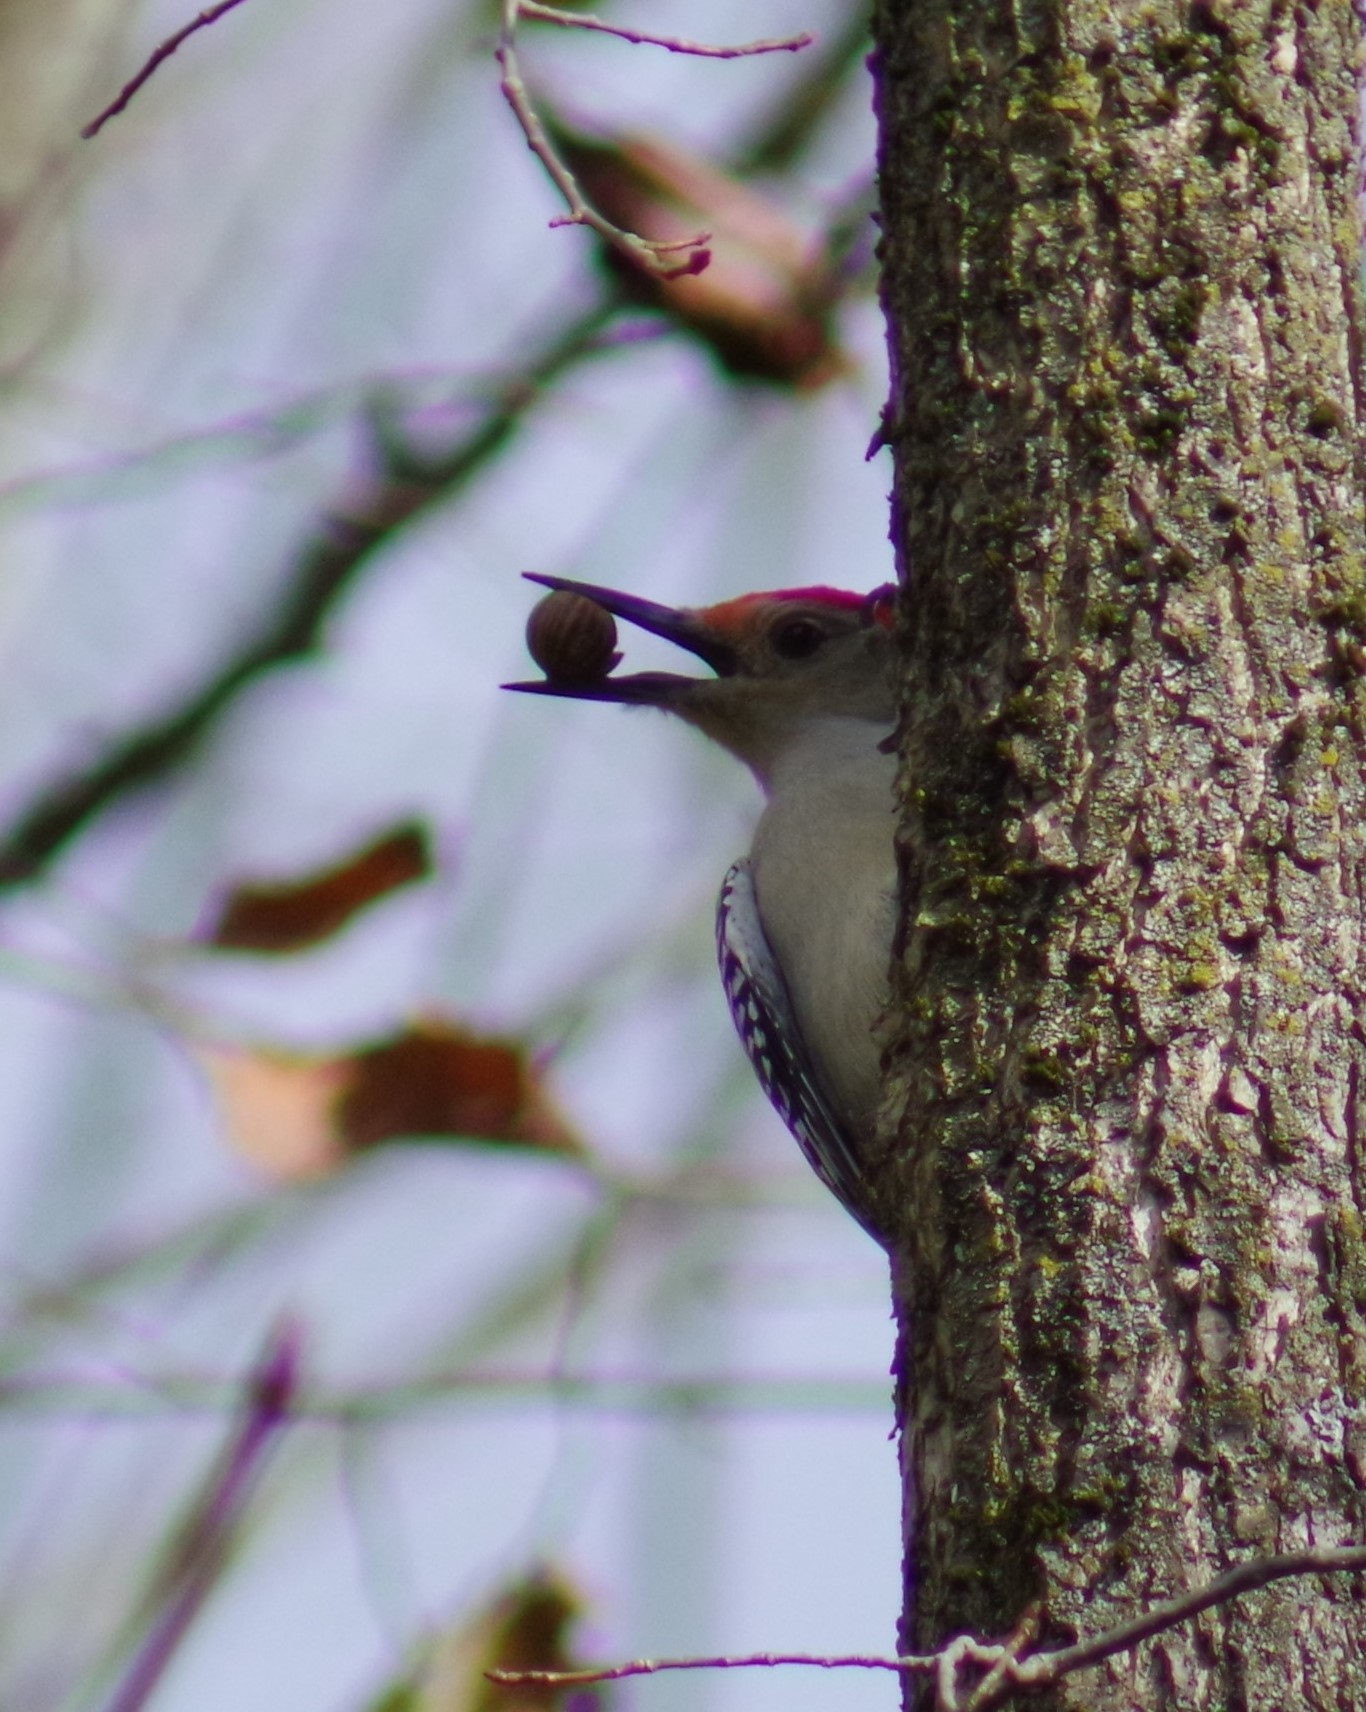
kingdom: Animalia
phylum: Chordata
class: Aves
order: Piciformes
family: Picidae
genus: Melanerpes
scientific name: Melanerpes carolinus
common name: Red-bellied woodpecker
